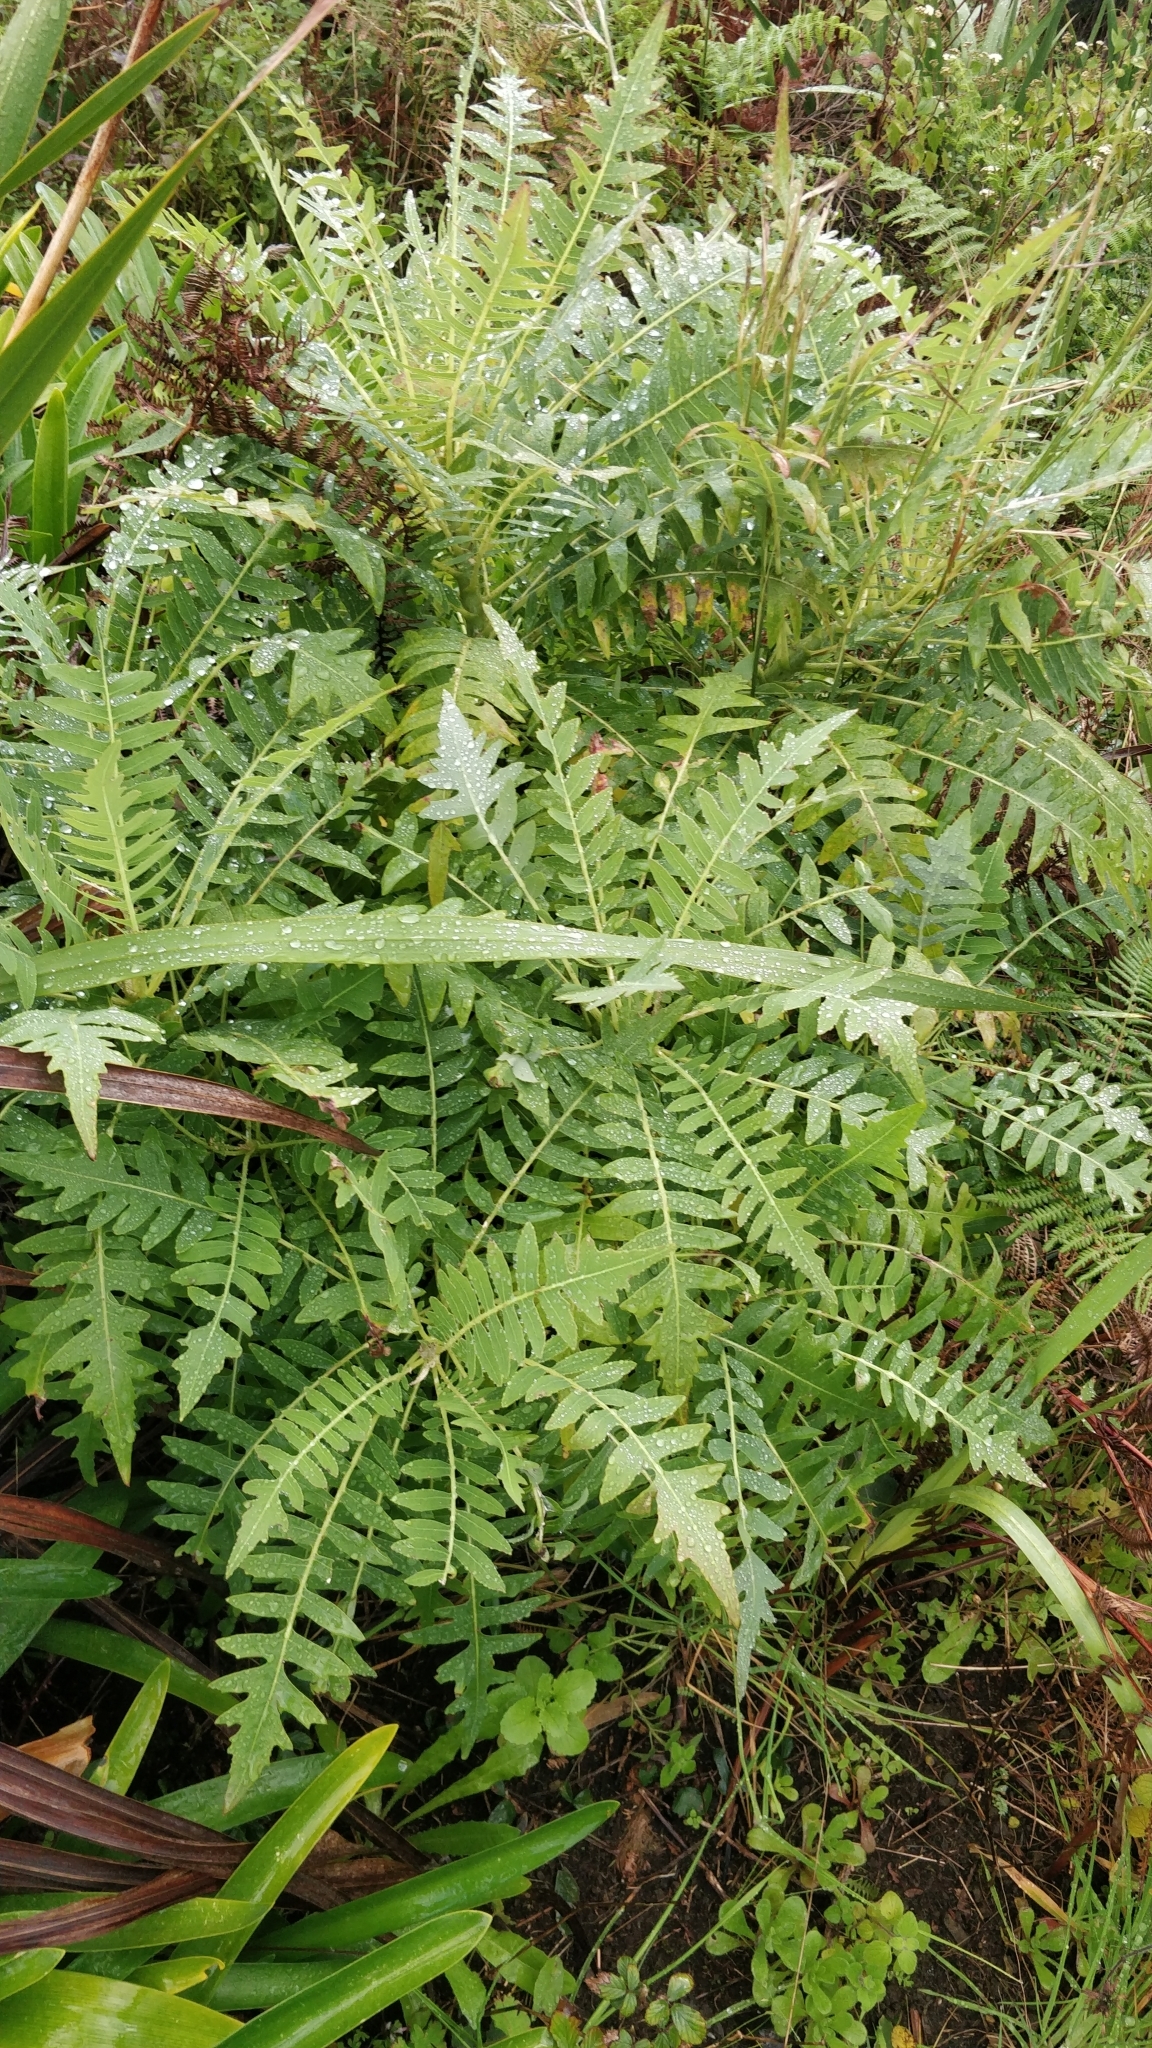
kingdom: Plantae
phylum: Tracheophyta
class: Magnoliopsida
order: Asterales
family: Asteraceae
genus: Sonchus
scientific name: Sonchus pinnatus
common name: Wing-leaved sow-thistle
